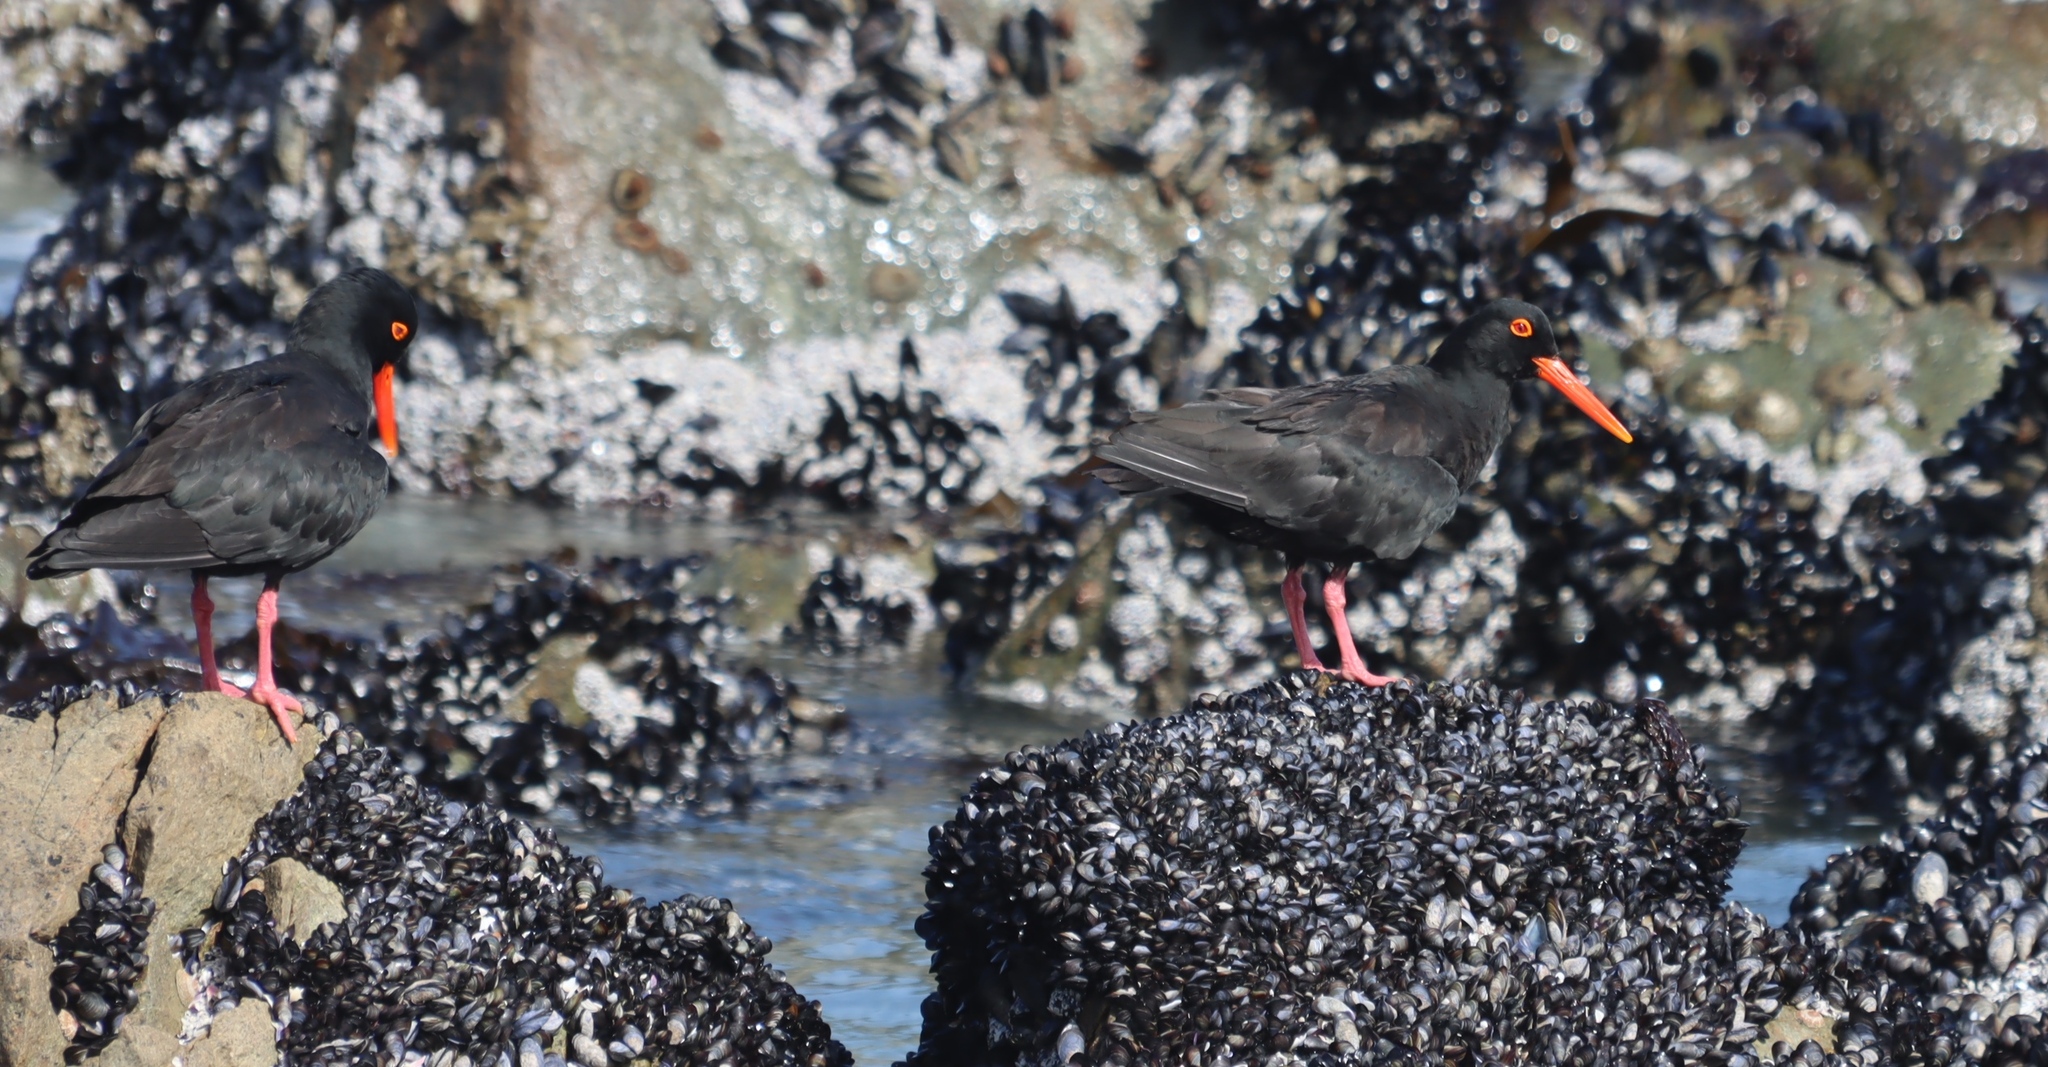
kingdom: Animalia
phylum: Chordata
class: Aves
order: Charadriiformes
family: Haematopodidae
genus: Haematopus
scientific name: Haematopus moquini
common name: African oystercatcher
